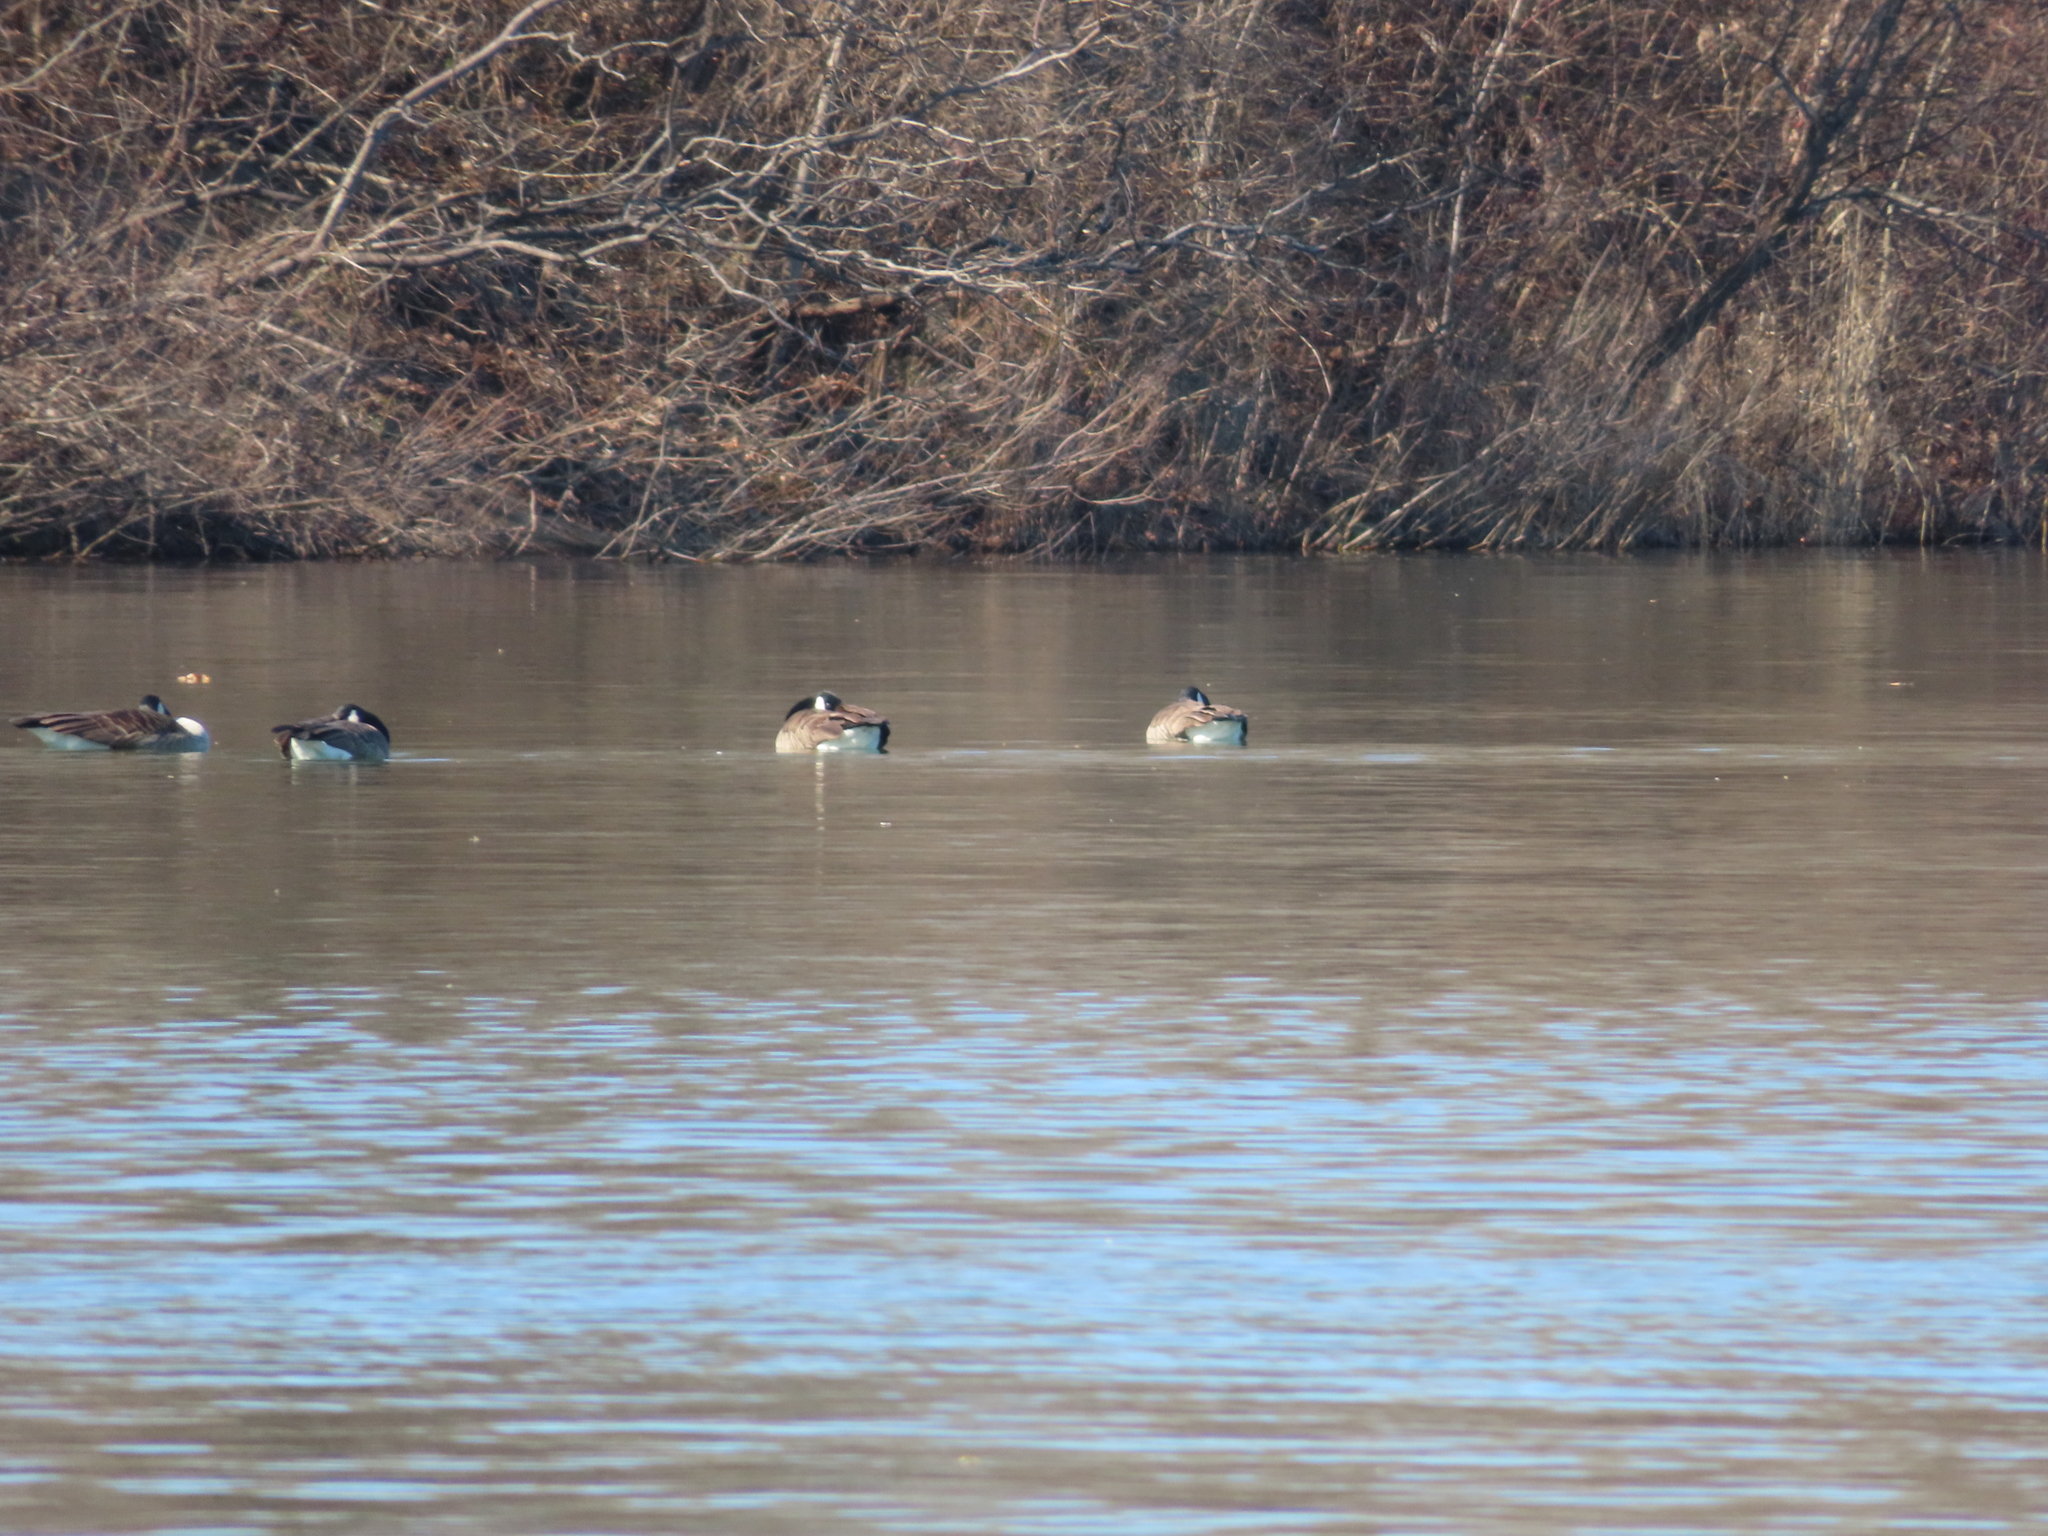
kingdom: Animalia
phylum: Chordata
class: Aves
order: Anseriformes
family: Anatidae
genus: Branta
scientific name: Branta canadensis
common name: Canada goose
